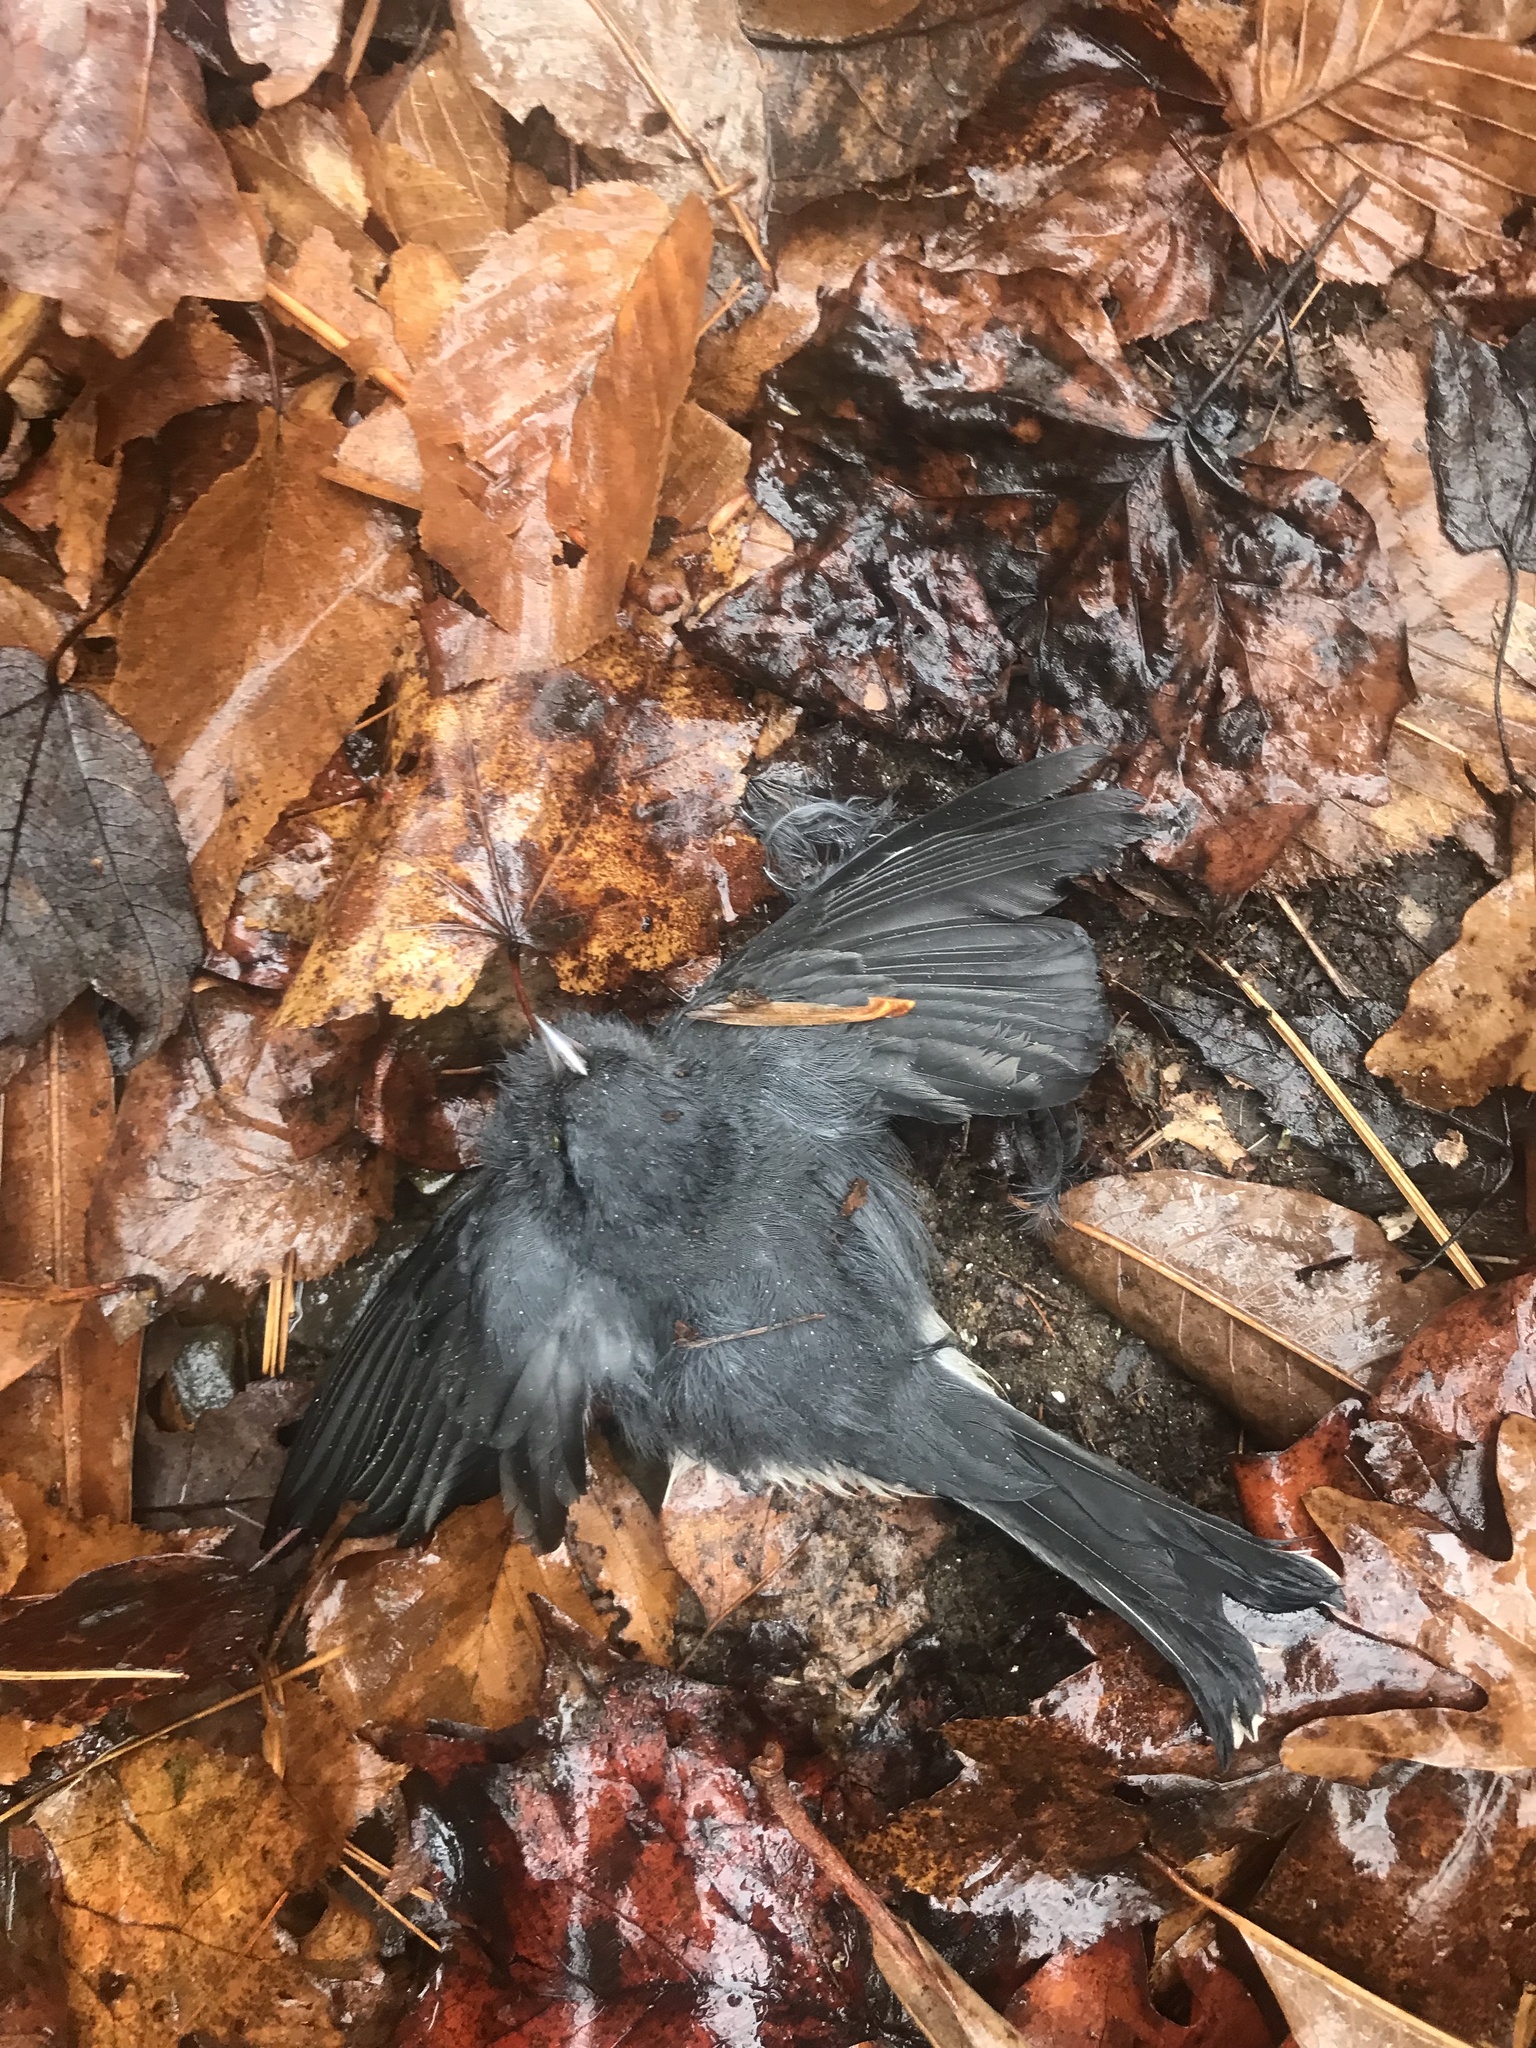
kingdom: Animalia
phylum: Chordata
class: Aves
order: Passeriformes
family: Passerellidae
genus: Junco
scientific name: Junco hyemalis
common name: Dark-eyed junco
